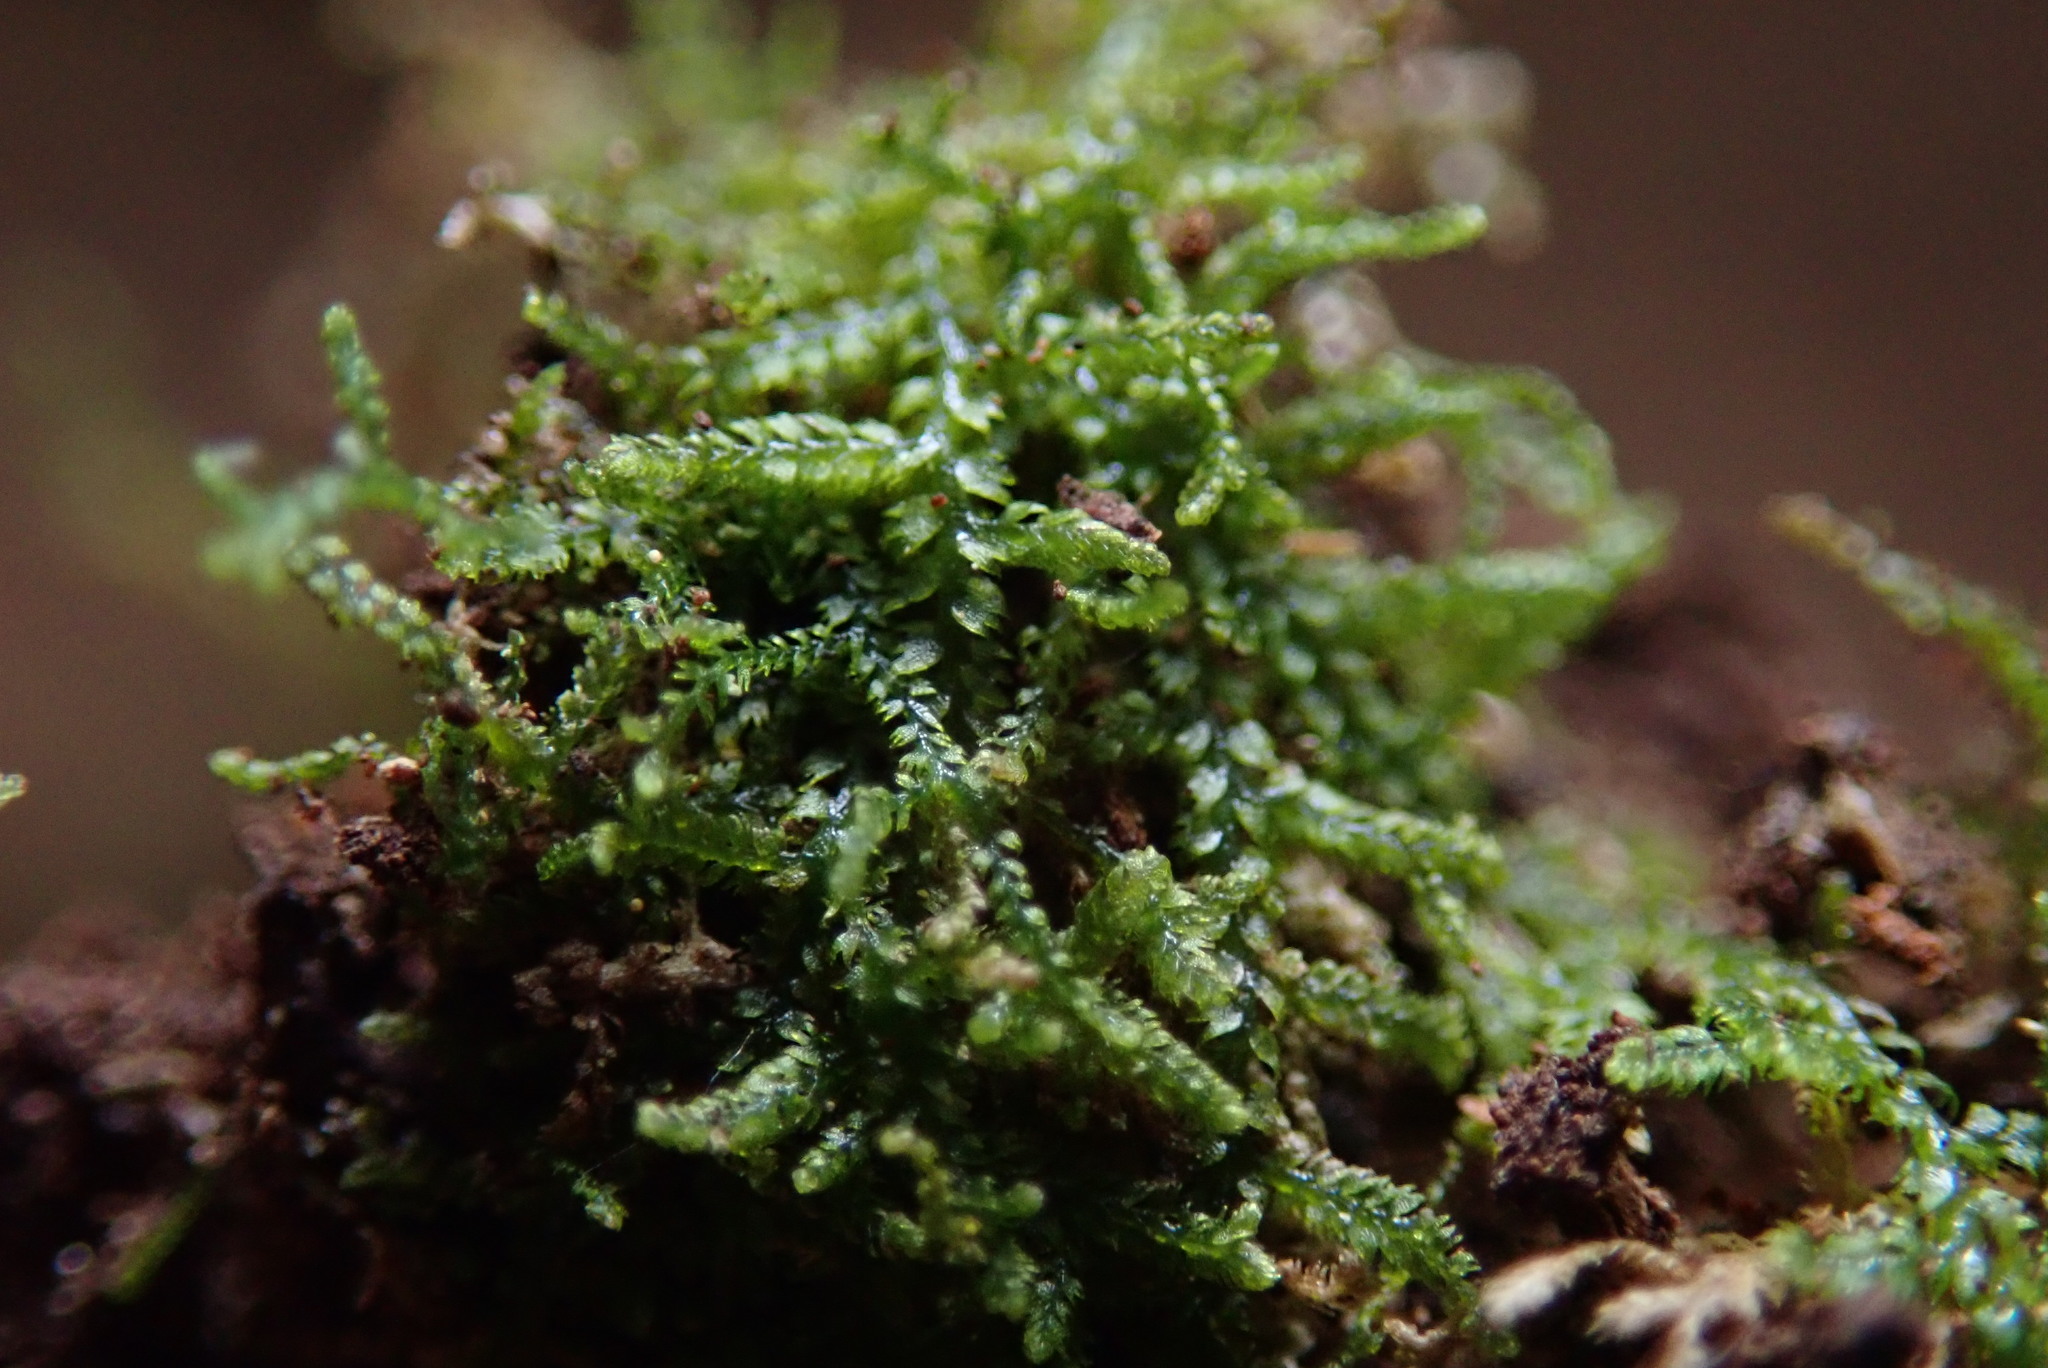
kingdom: Plantae
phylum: Marchantiophyta
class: Jungermanniopsida
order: Jungermanniales
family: Lepidoziaceae
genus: Lepidozia
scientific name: Lepidozia reptans
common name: Creeping fingerwort
